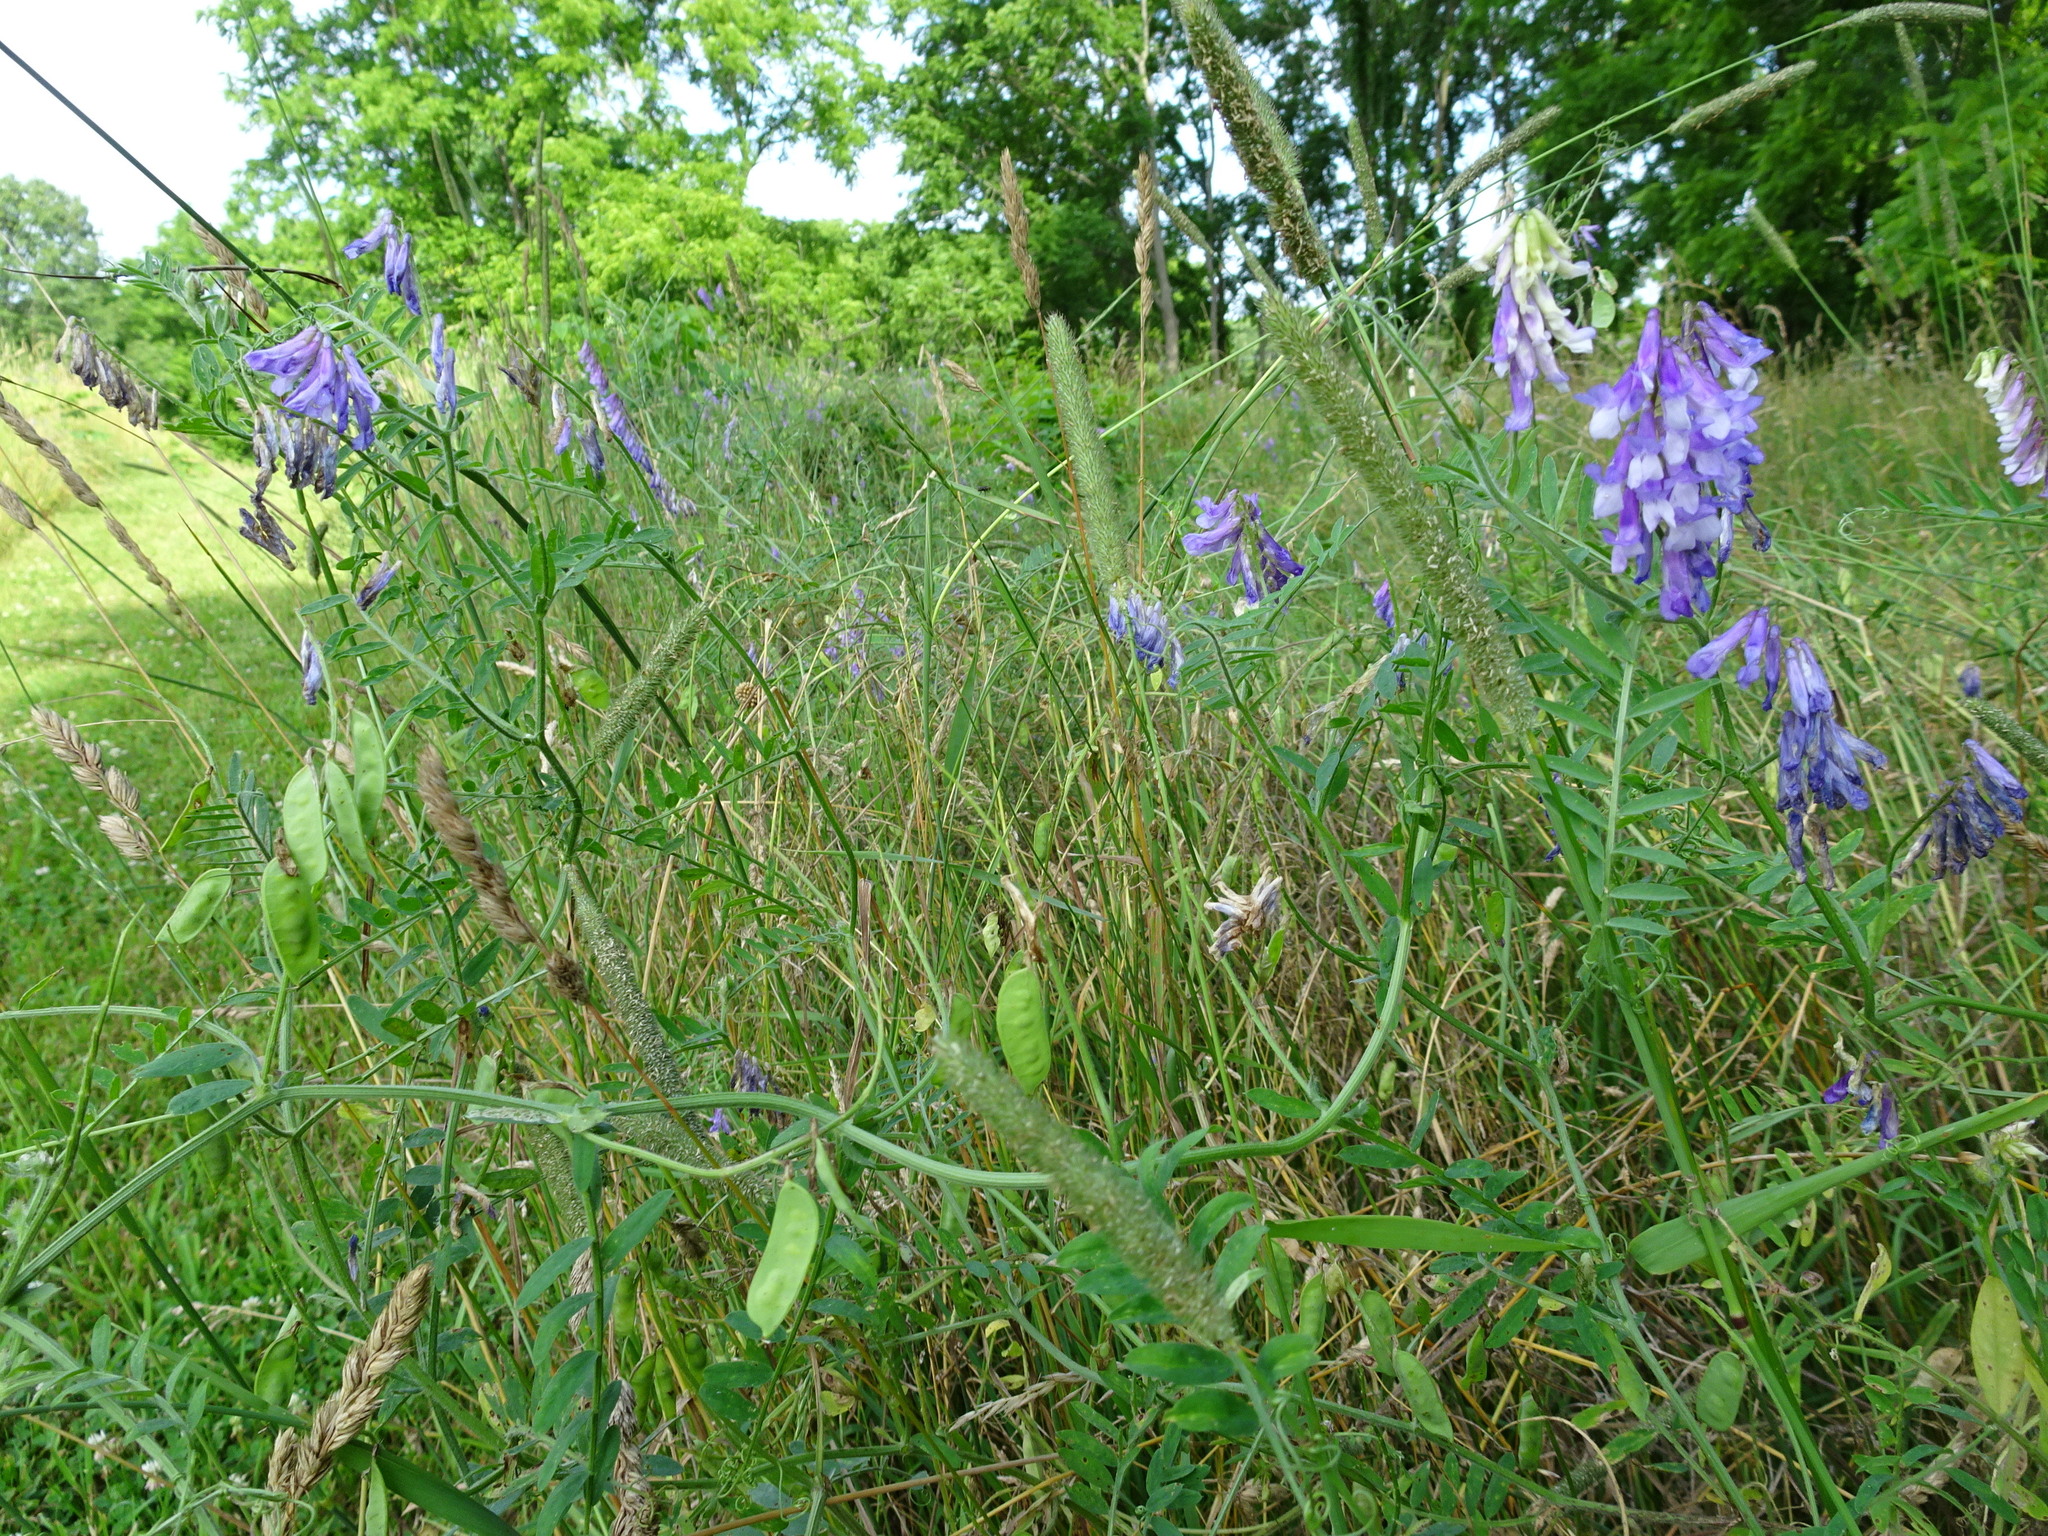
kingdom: Plantae
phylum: Tracheophyta
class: Magnoliopsida
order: Fabales
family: Fabaceae
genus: Vicia
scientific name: Vicia villosa
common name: Fodder vetch
